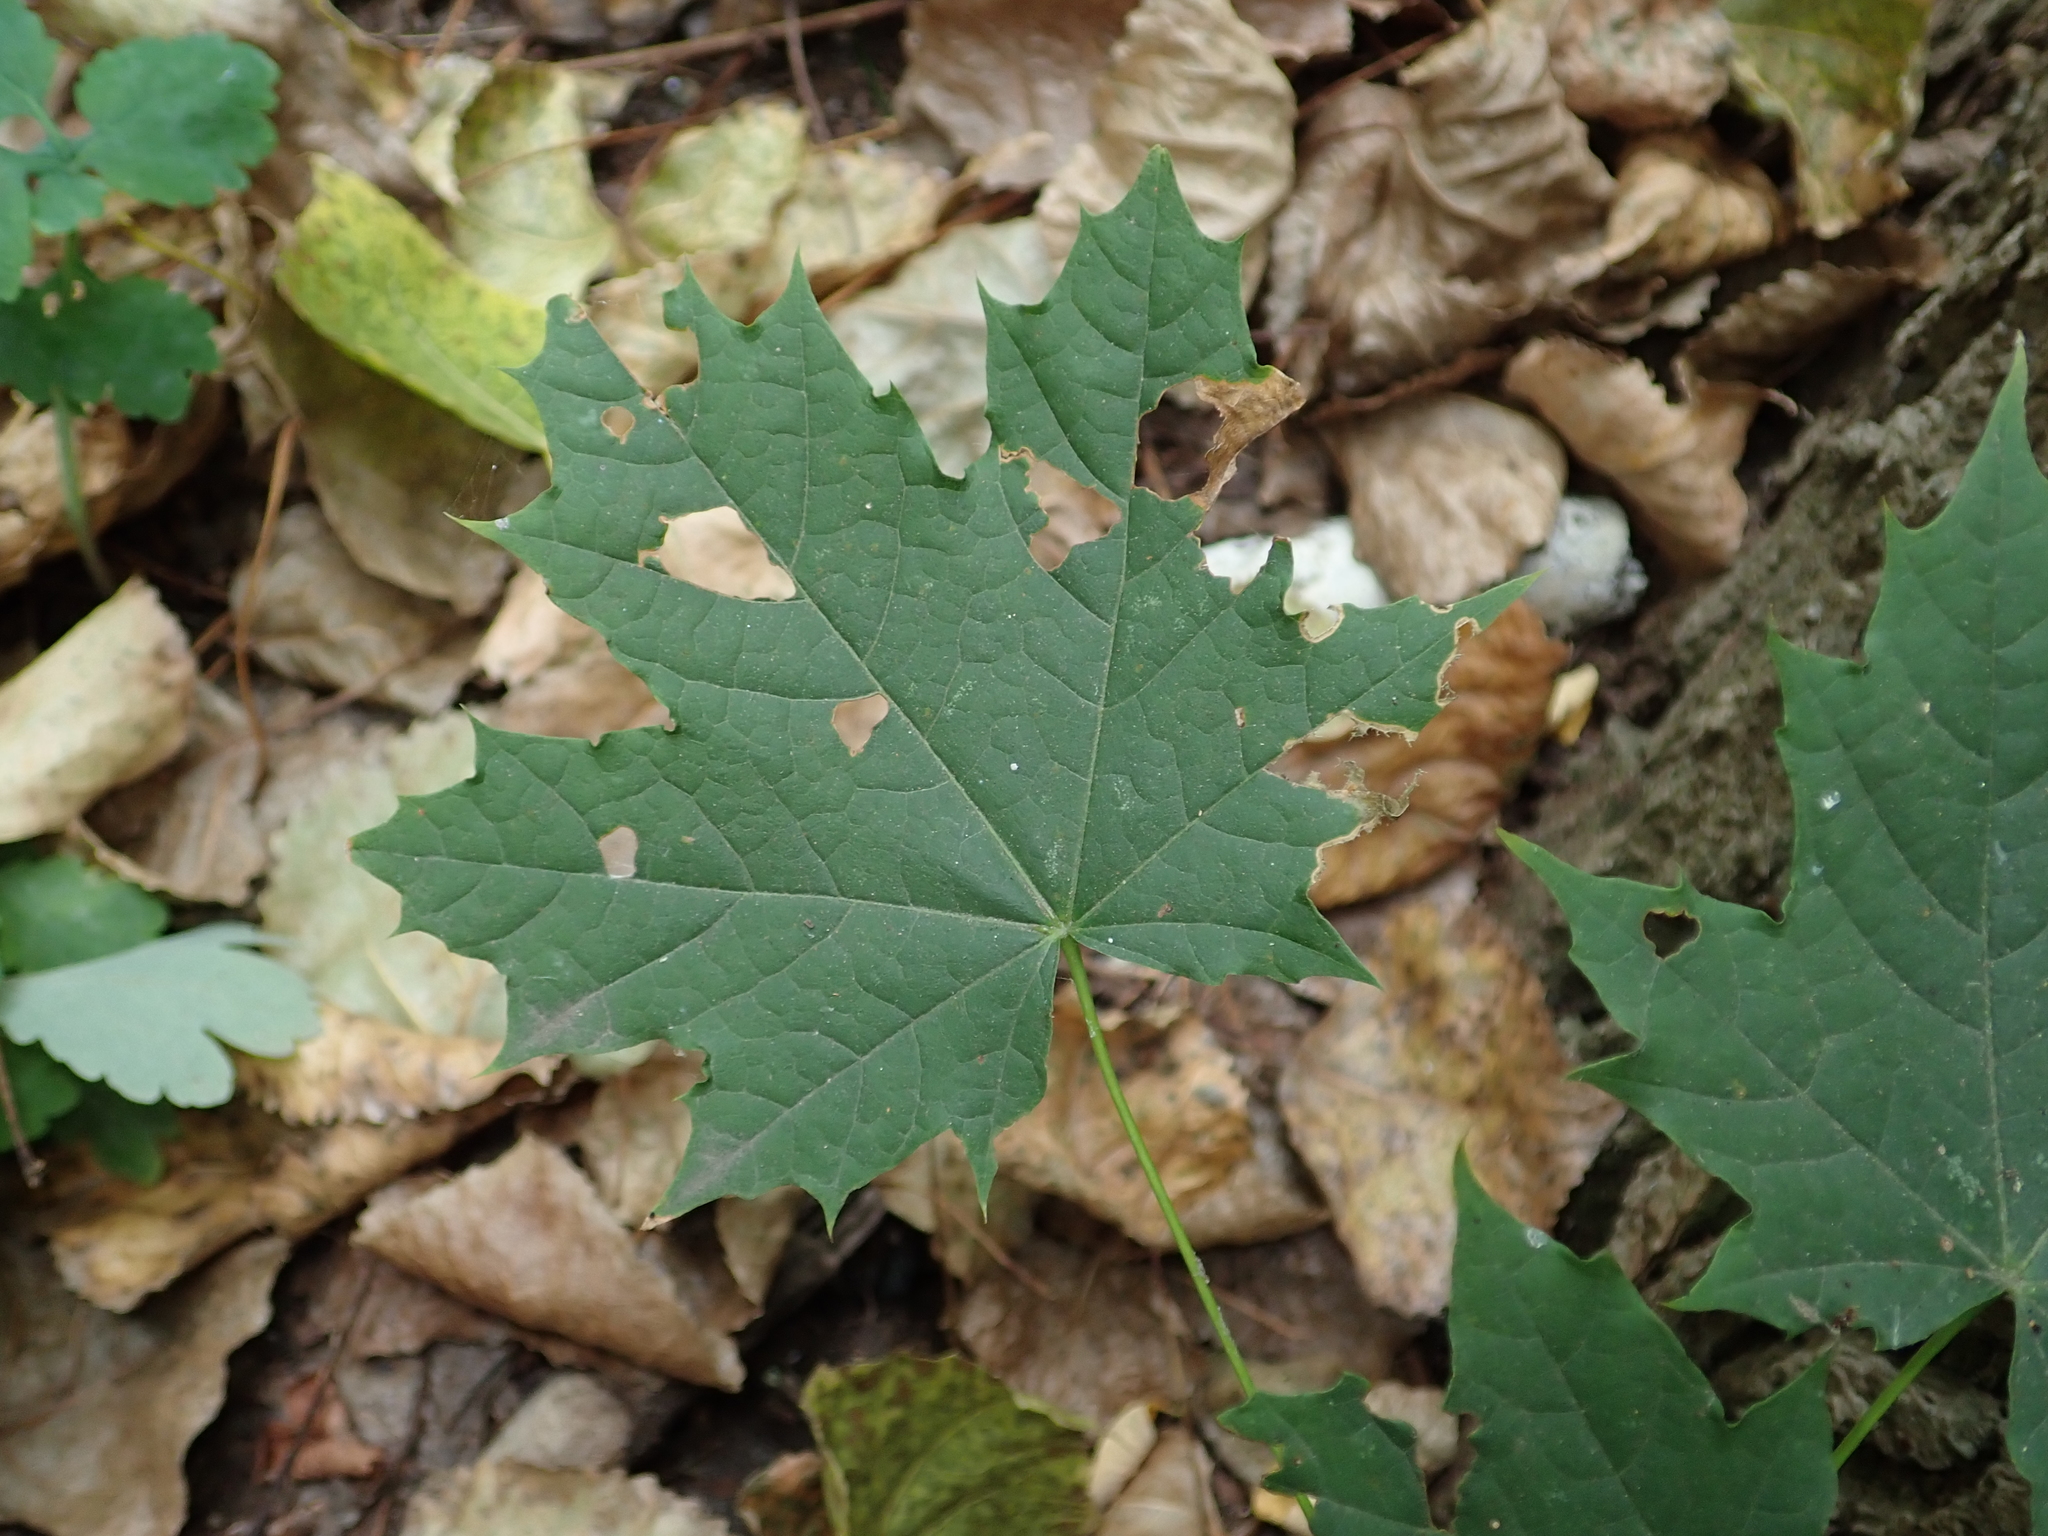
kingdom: Plantae
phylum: Tracheophyta
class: Magnoliopsida
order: Sapindales
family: Sapindaceae
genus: Acer
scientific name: Acer platanoides
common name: Norway maple
